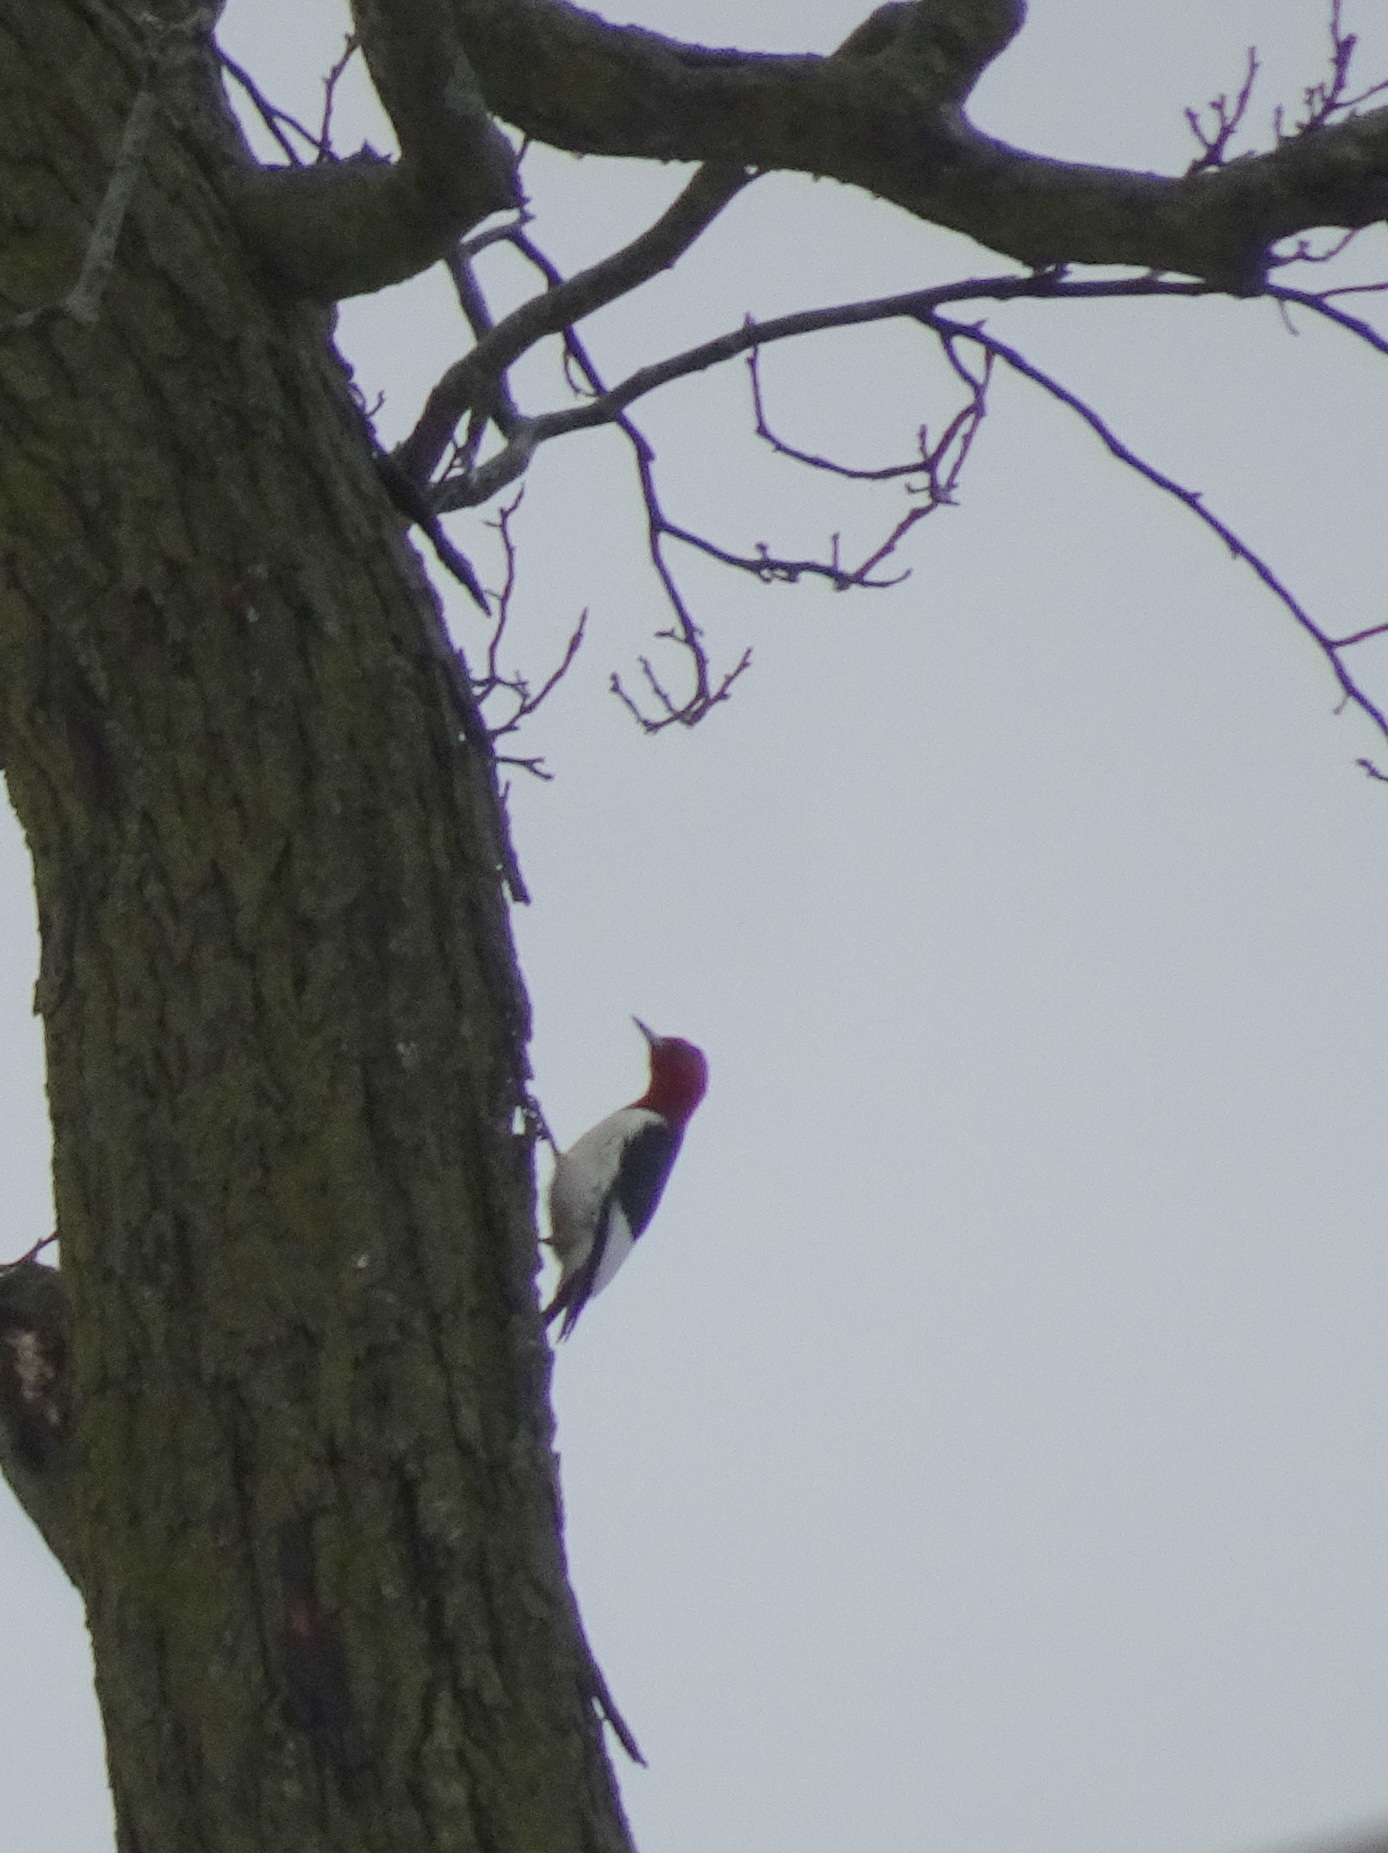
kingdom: Animalia
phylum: Chordata
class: Aves
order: Piciformes
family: Picidae
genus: Melanerpes
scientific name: Melanerpes erythrocephalus
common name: Red-headed woodpecker
